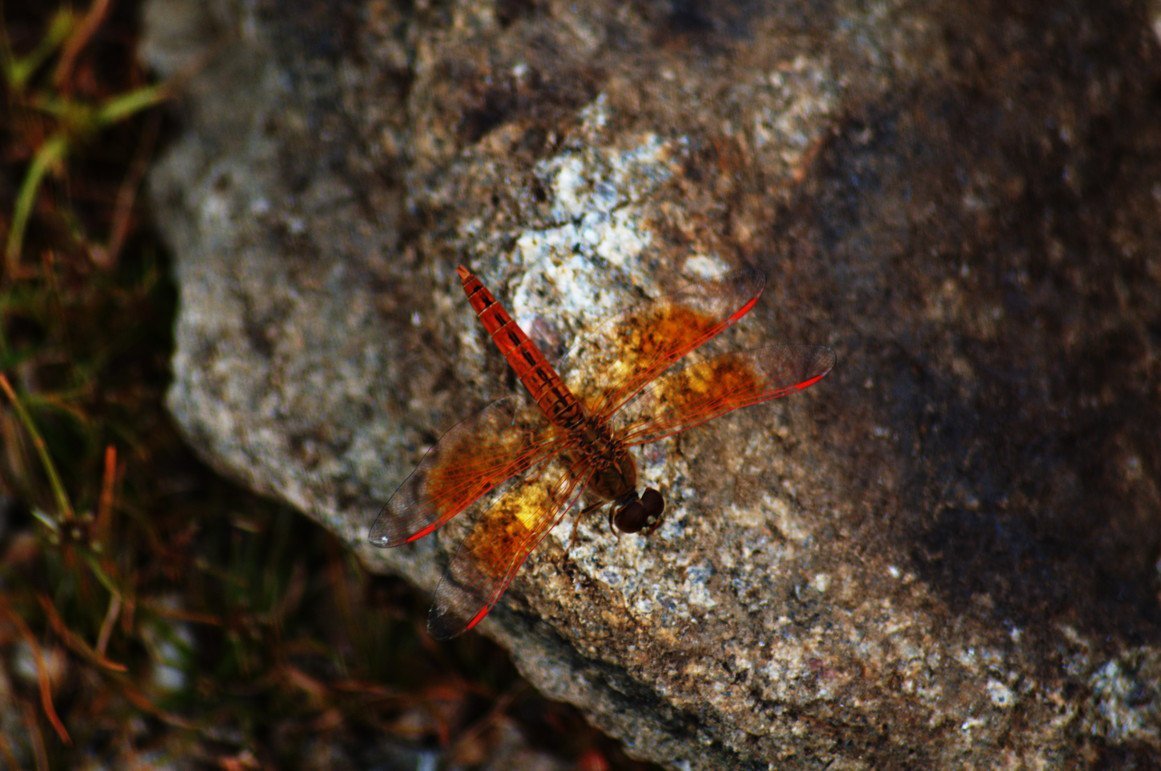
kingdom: Animalia
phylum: Arthropoda
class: Insecta
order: Odonata
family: Libellulidae
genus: Brachythemis
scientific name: Brachythemis contaminata
